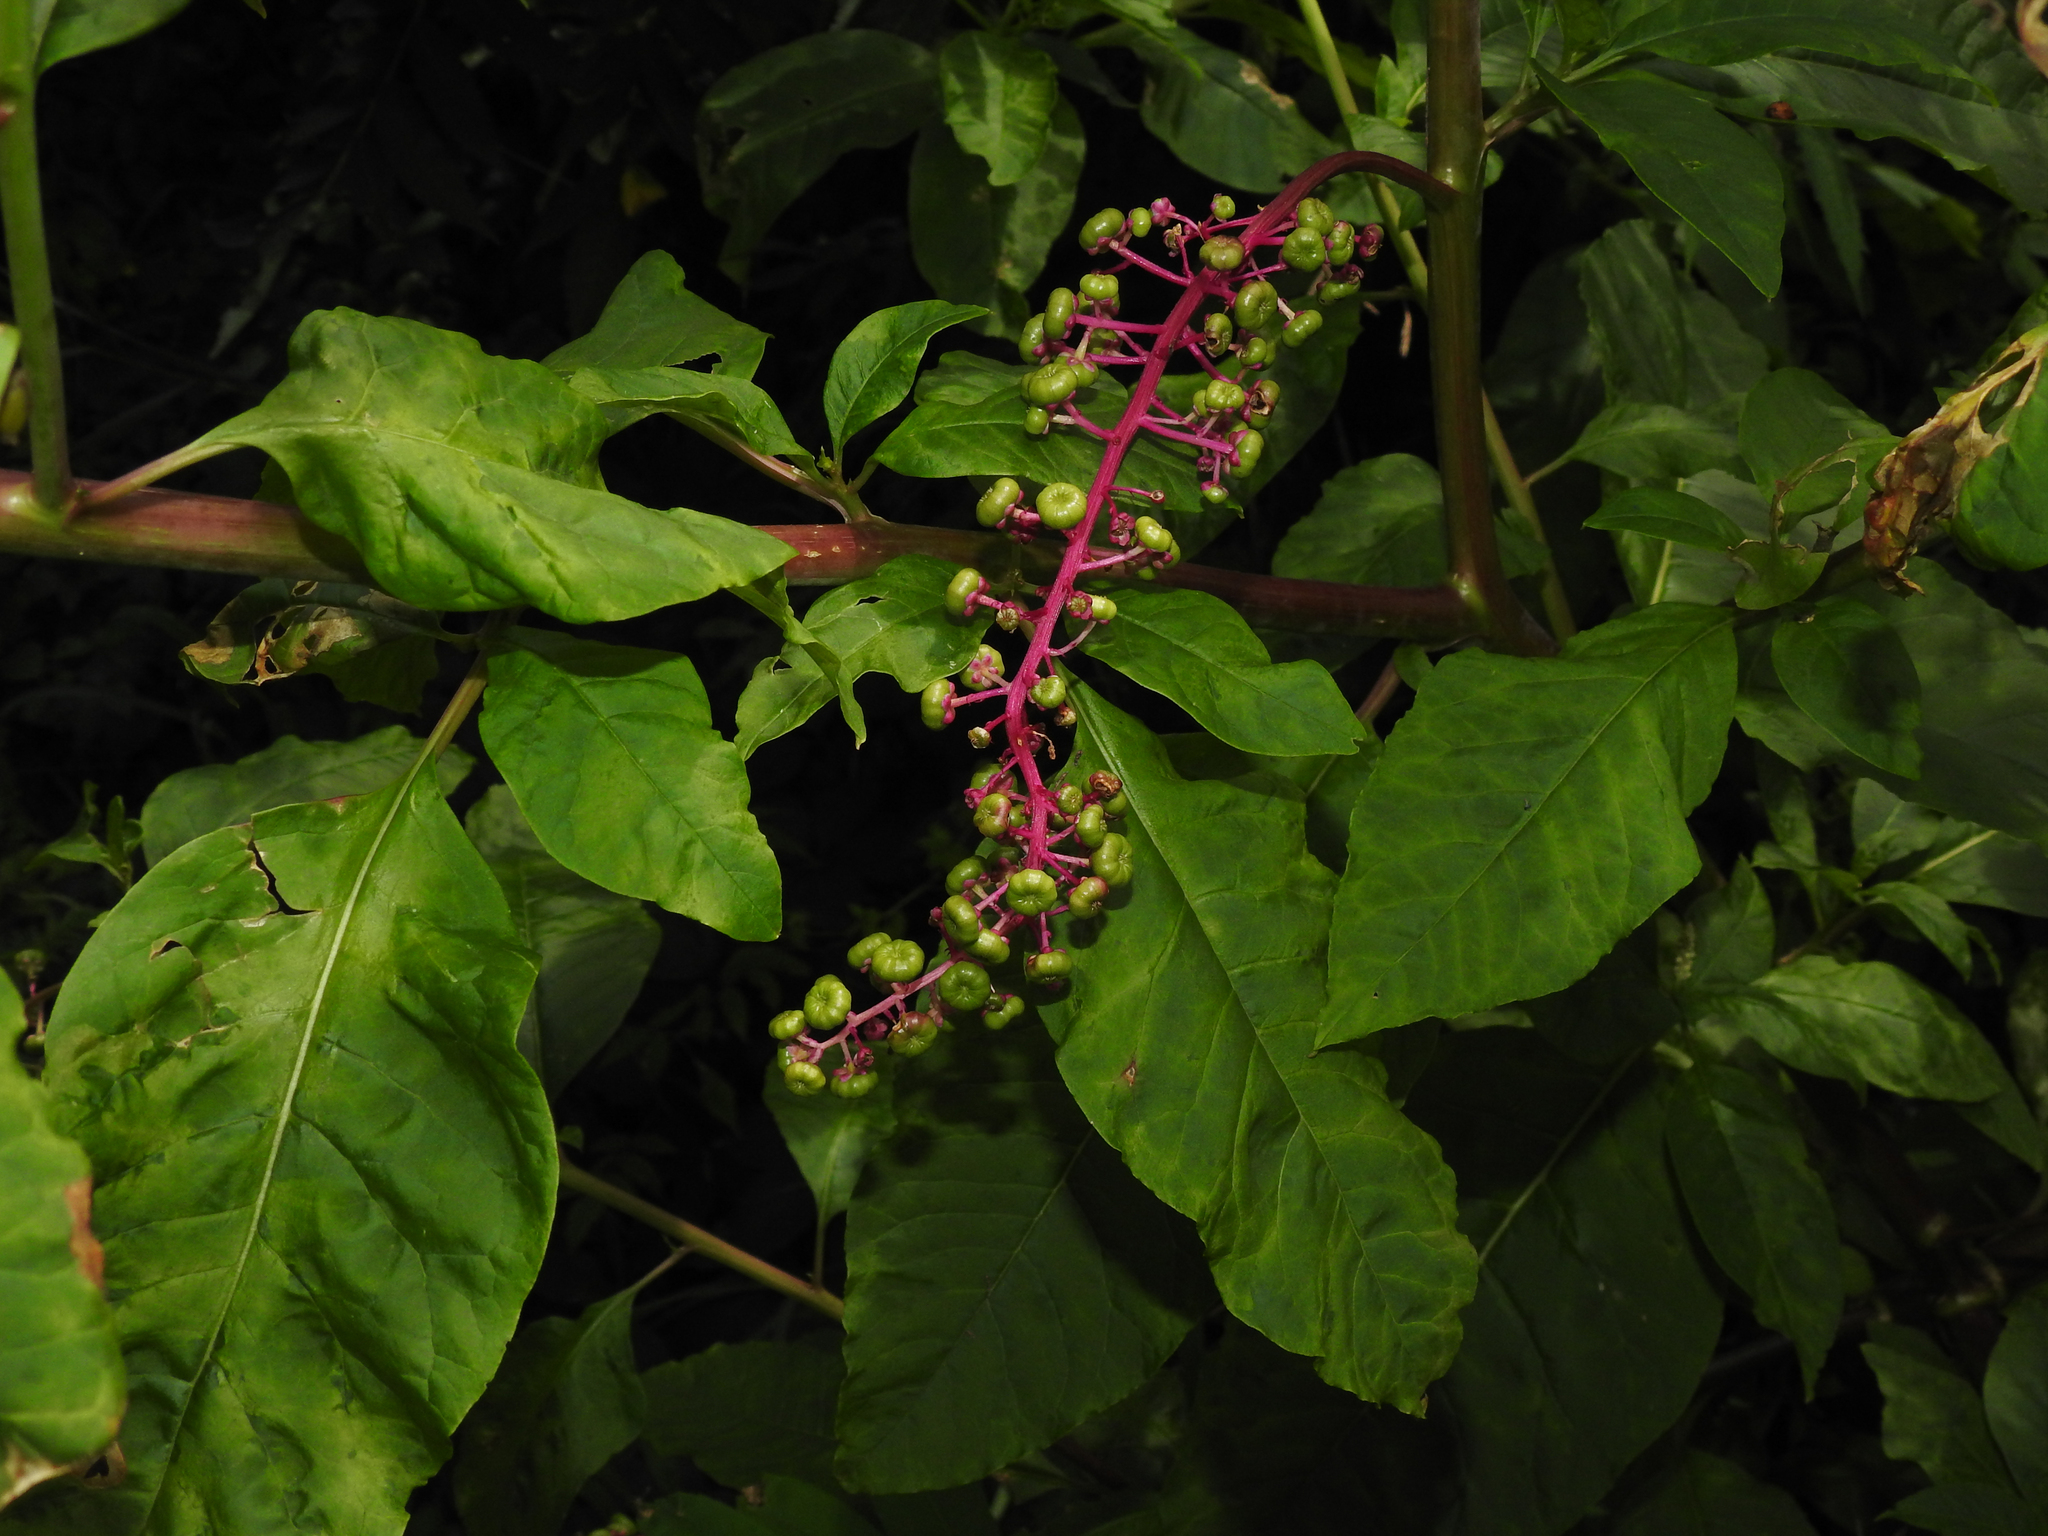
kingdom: Plantae
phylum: Tracheophyta
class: Magnoliopsida
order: Caryophyllales
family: Phytolaccaceae
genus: Phytolacca
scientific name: Phytolacca americana
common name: American pokeweed
